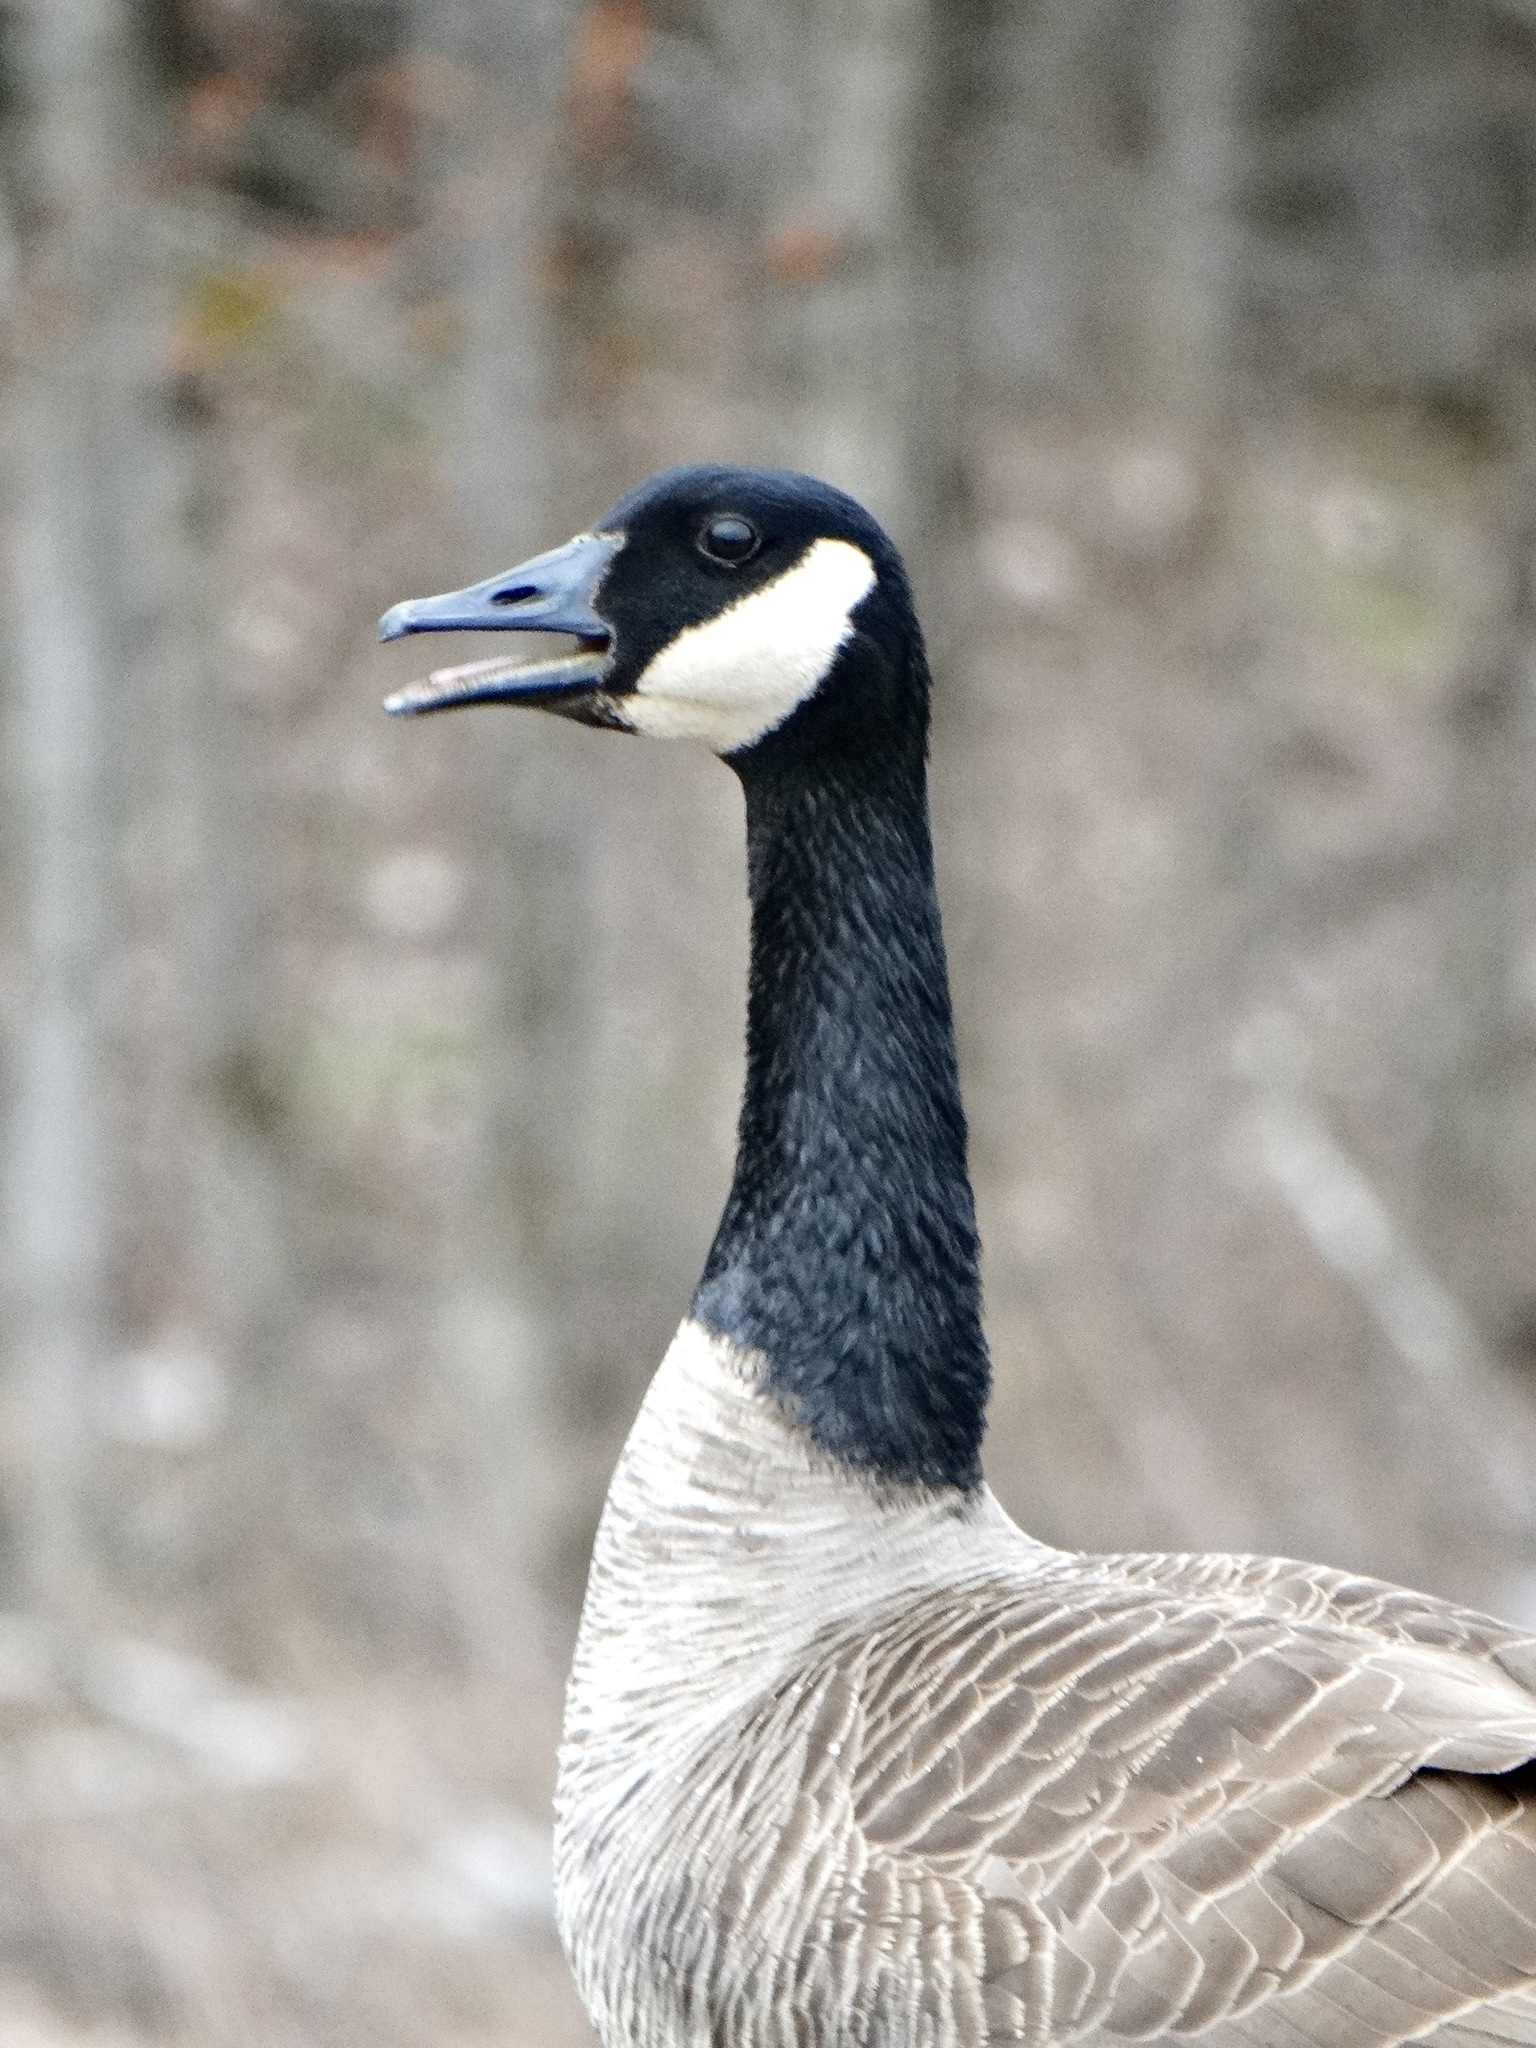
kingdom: Animalia
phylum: Chordata
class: Aves
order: Anseriformes
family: Anatidae
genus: Branta
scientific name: Branta canadensis
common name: Canada goose
